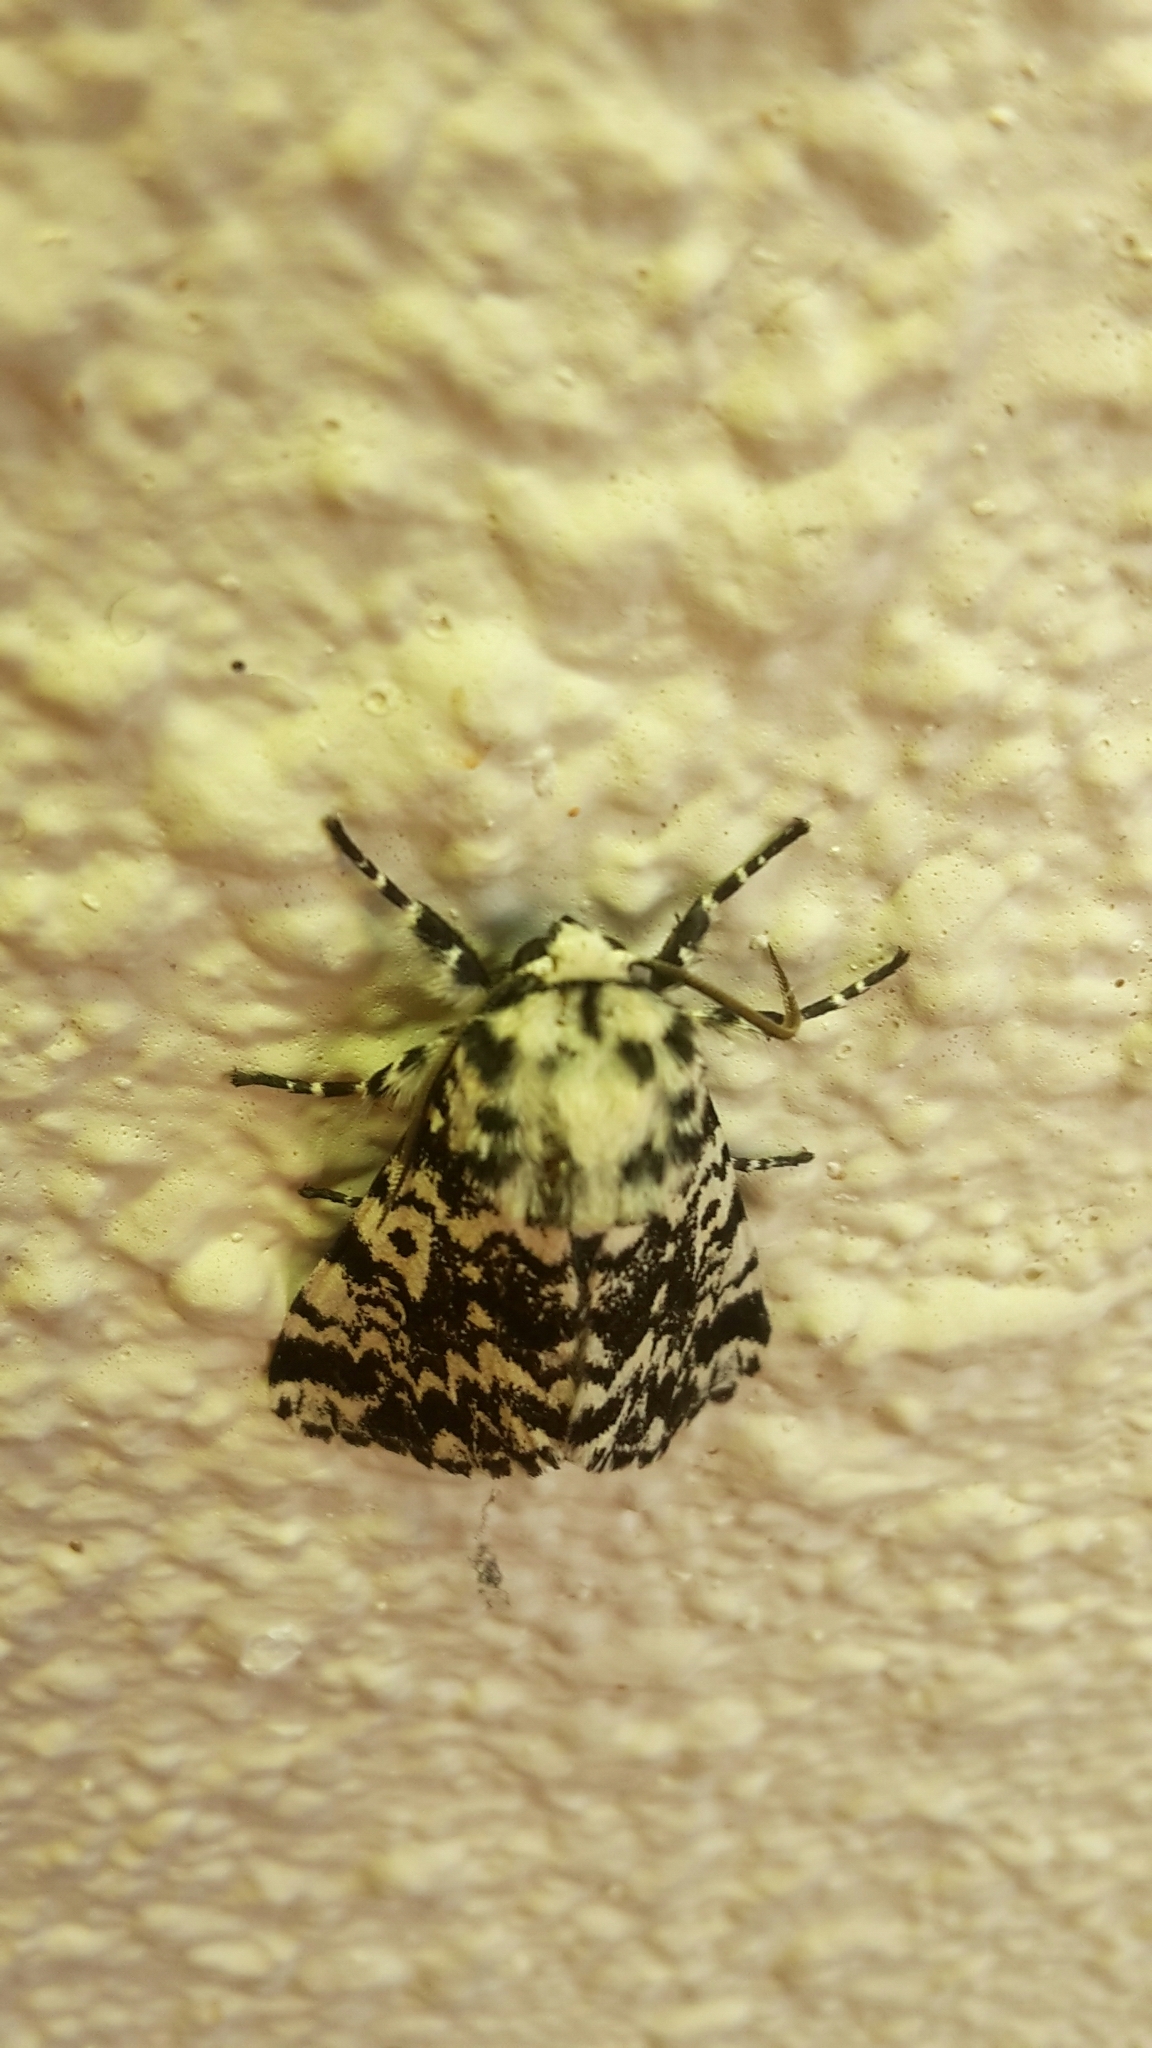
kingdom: Animalia
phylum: Arthropoda
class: Insecta
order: Lepidoptera
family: Noctuidae
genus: Panthea
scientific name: Panthea coenobita
